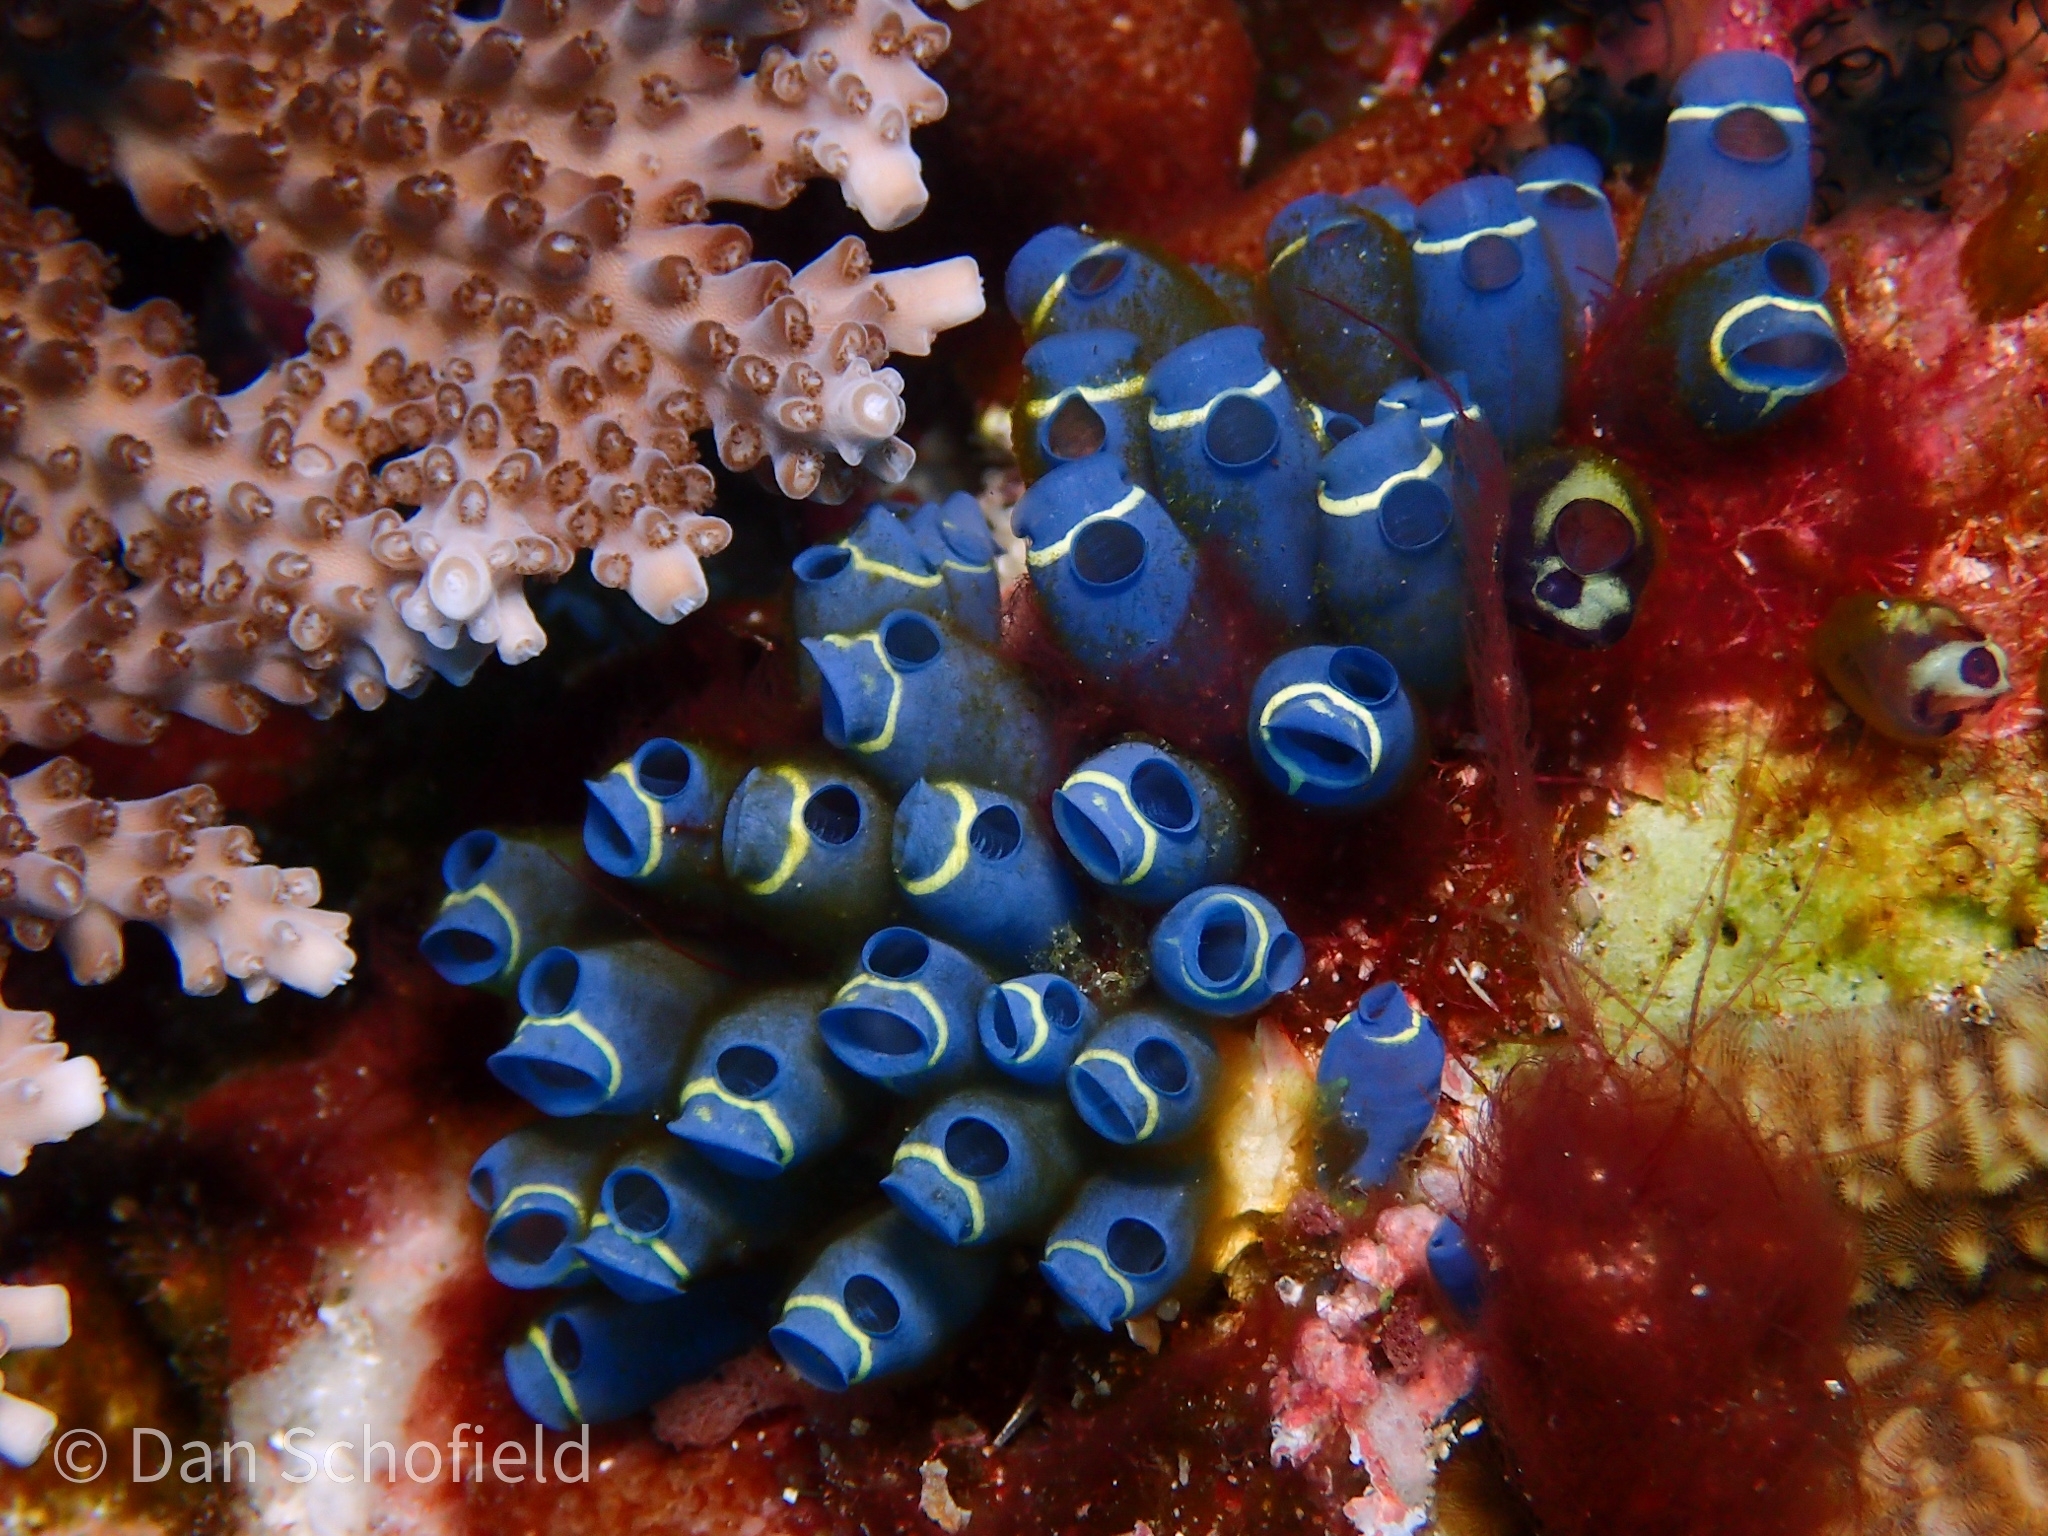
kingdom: Animalia
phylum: Chordata
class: Ascidiacea
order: Aplousobranchia
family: Clavelinidae
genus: Clavelina
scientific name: Clavelina cyclus
